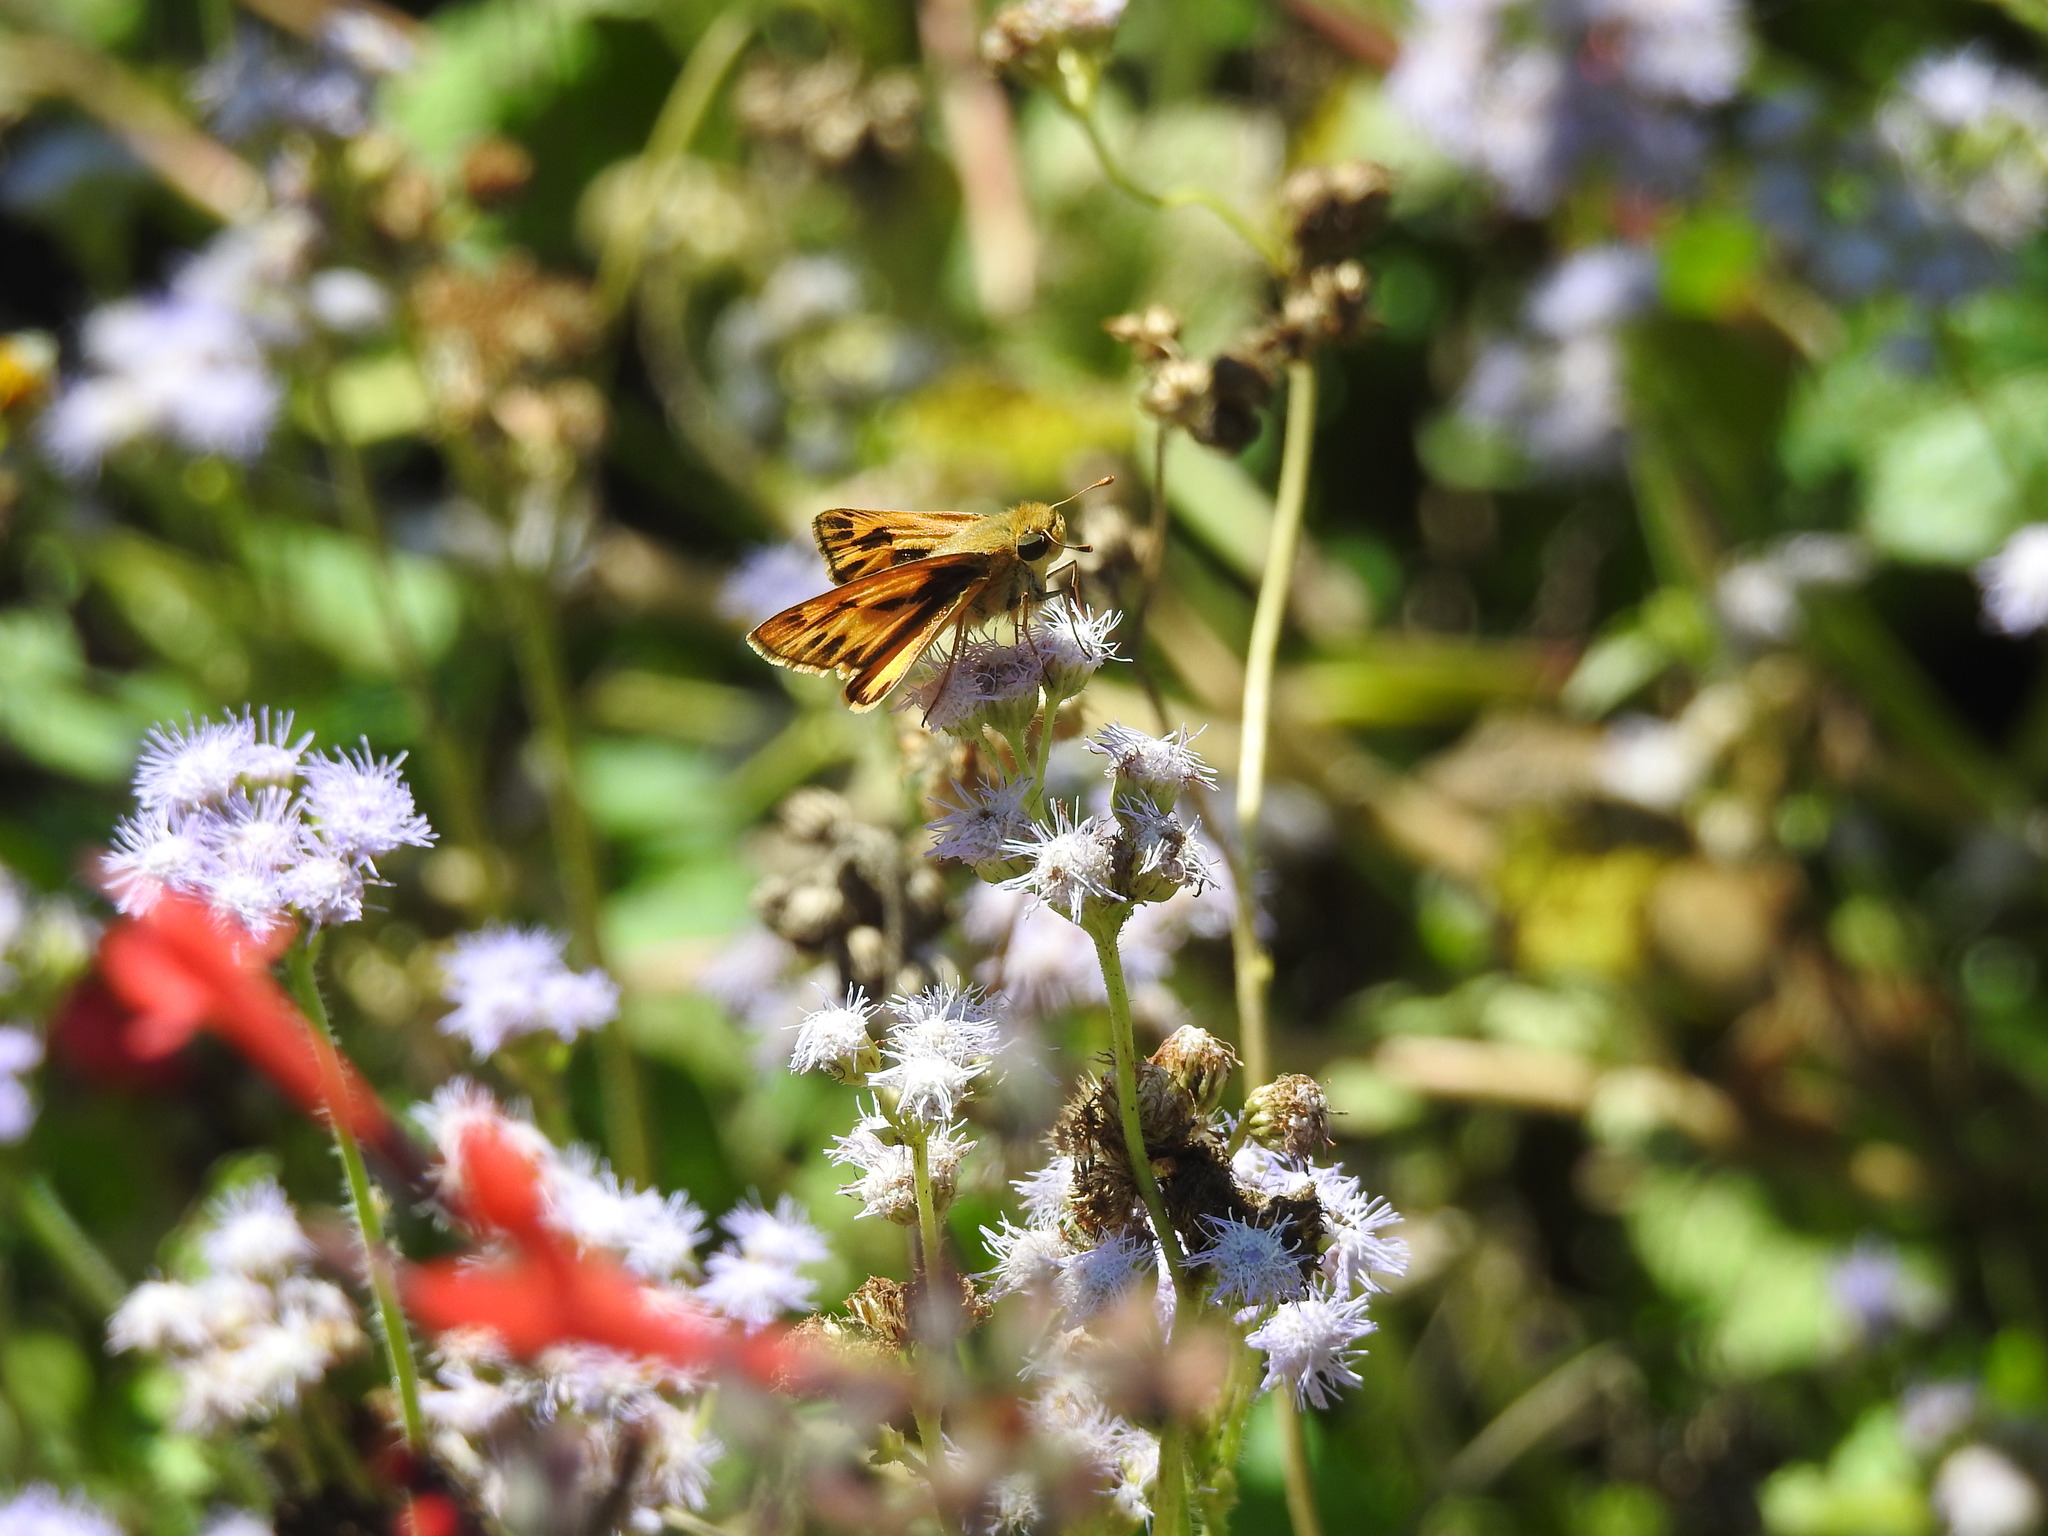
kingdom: Animalia
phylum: Arthropoda
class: Insecta
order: Lepidoptera
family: Hesperiidae
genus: Hylephila
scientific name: Hylephila phyleus
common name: Fiery skipper
